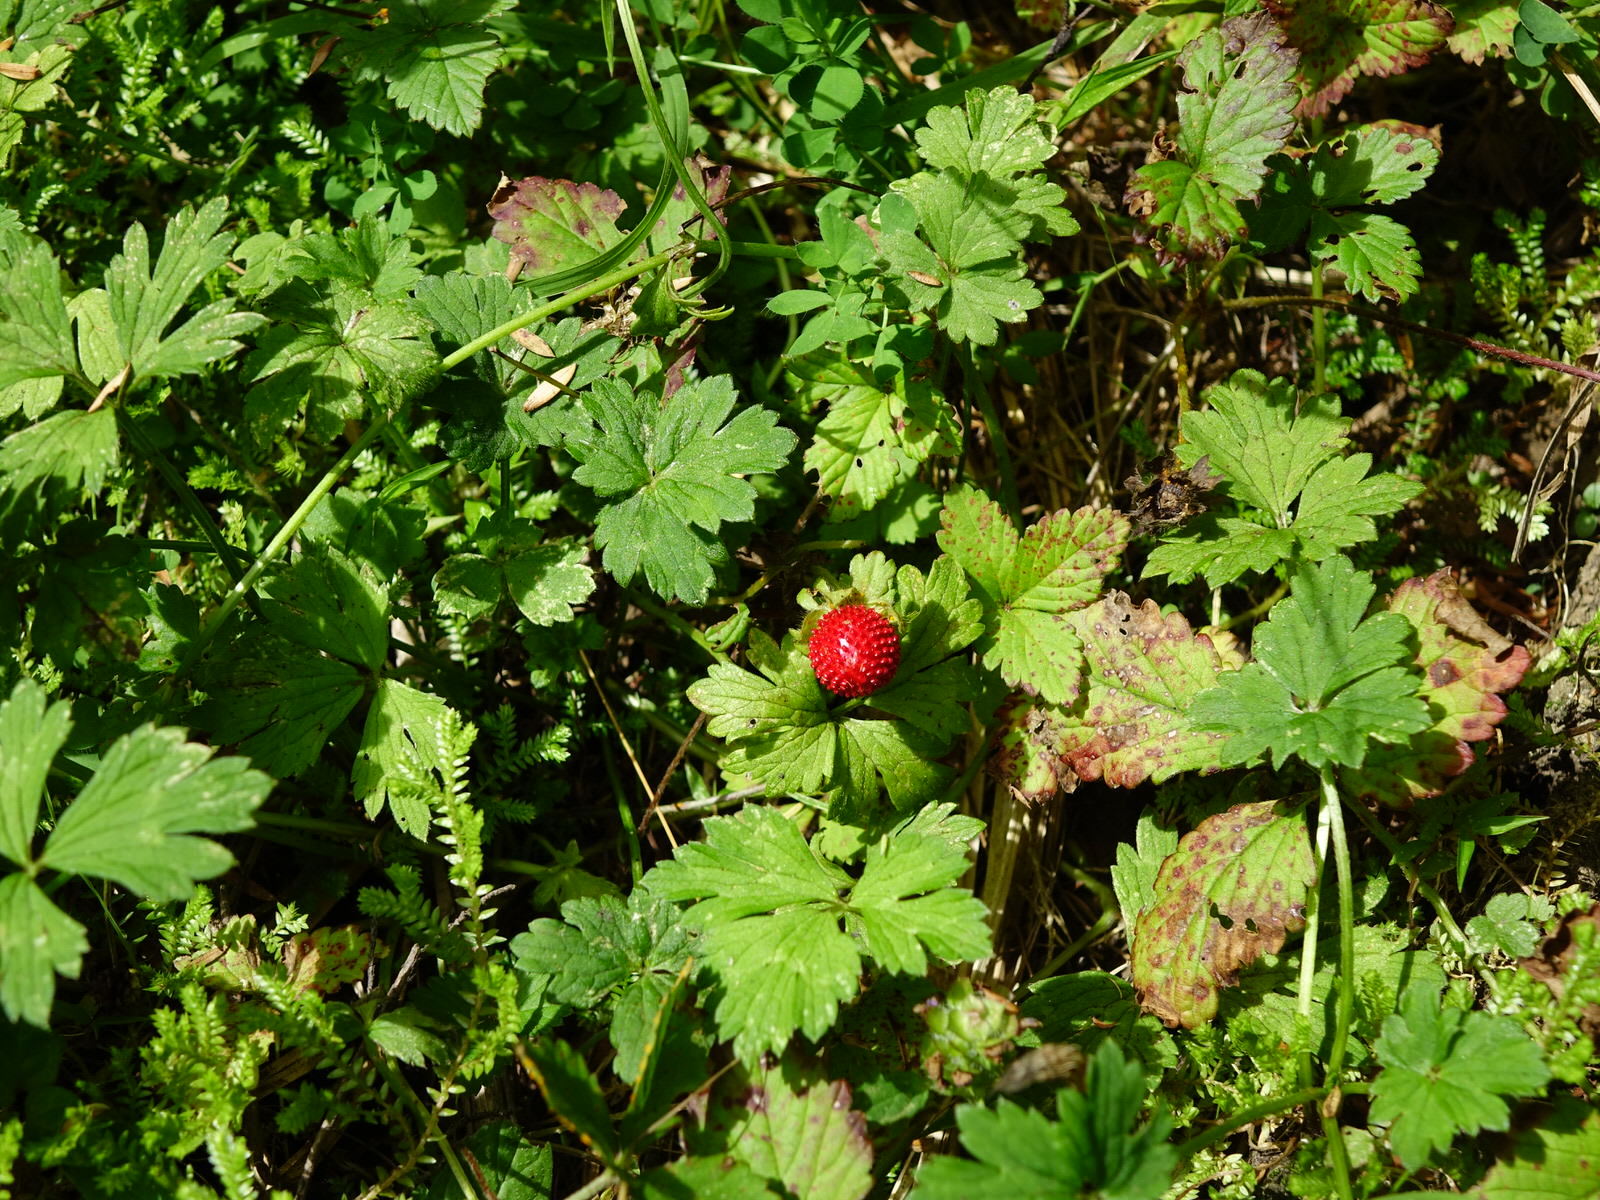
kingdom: Plantae
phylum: Tracheophyta
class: Magnoliopsida
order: Rosales
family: Rosaceae
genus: Potentilla
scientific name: Potentilla indica
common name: Yellow-flowered strawberry
